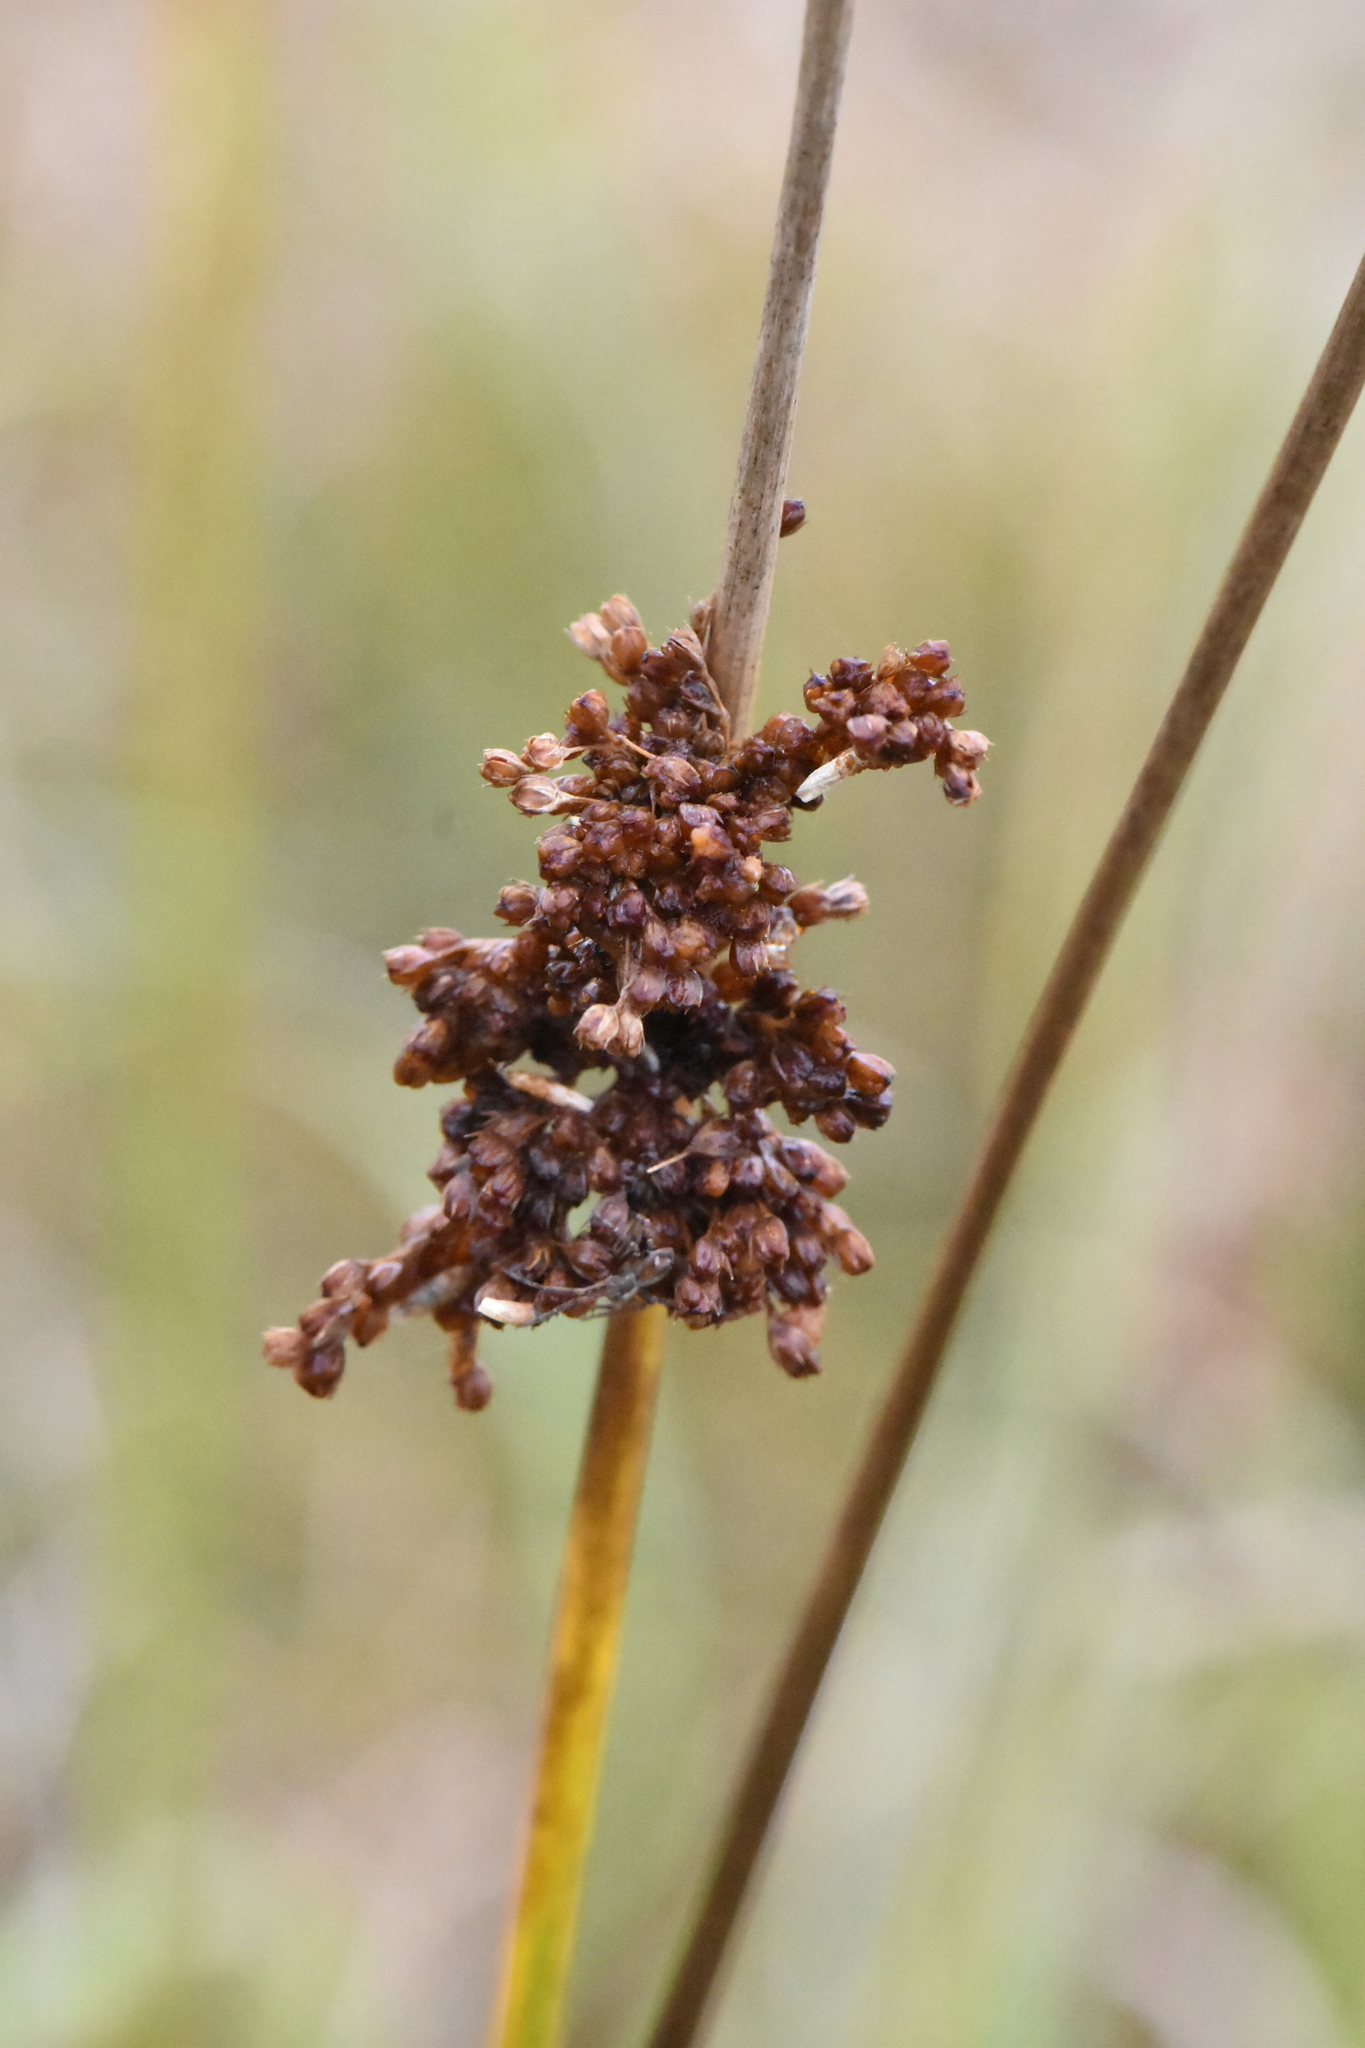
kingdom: Plantae
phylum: Tracheophyta
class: Liliopsida
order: Poales
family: Juncaceae
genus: Juncus
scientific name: Juncus effusus
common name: Soft rush
